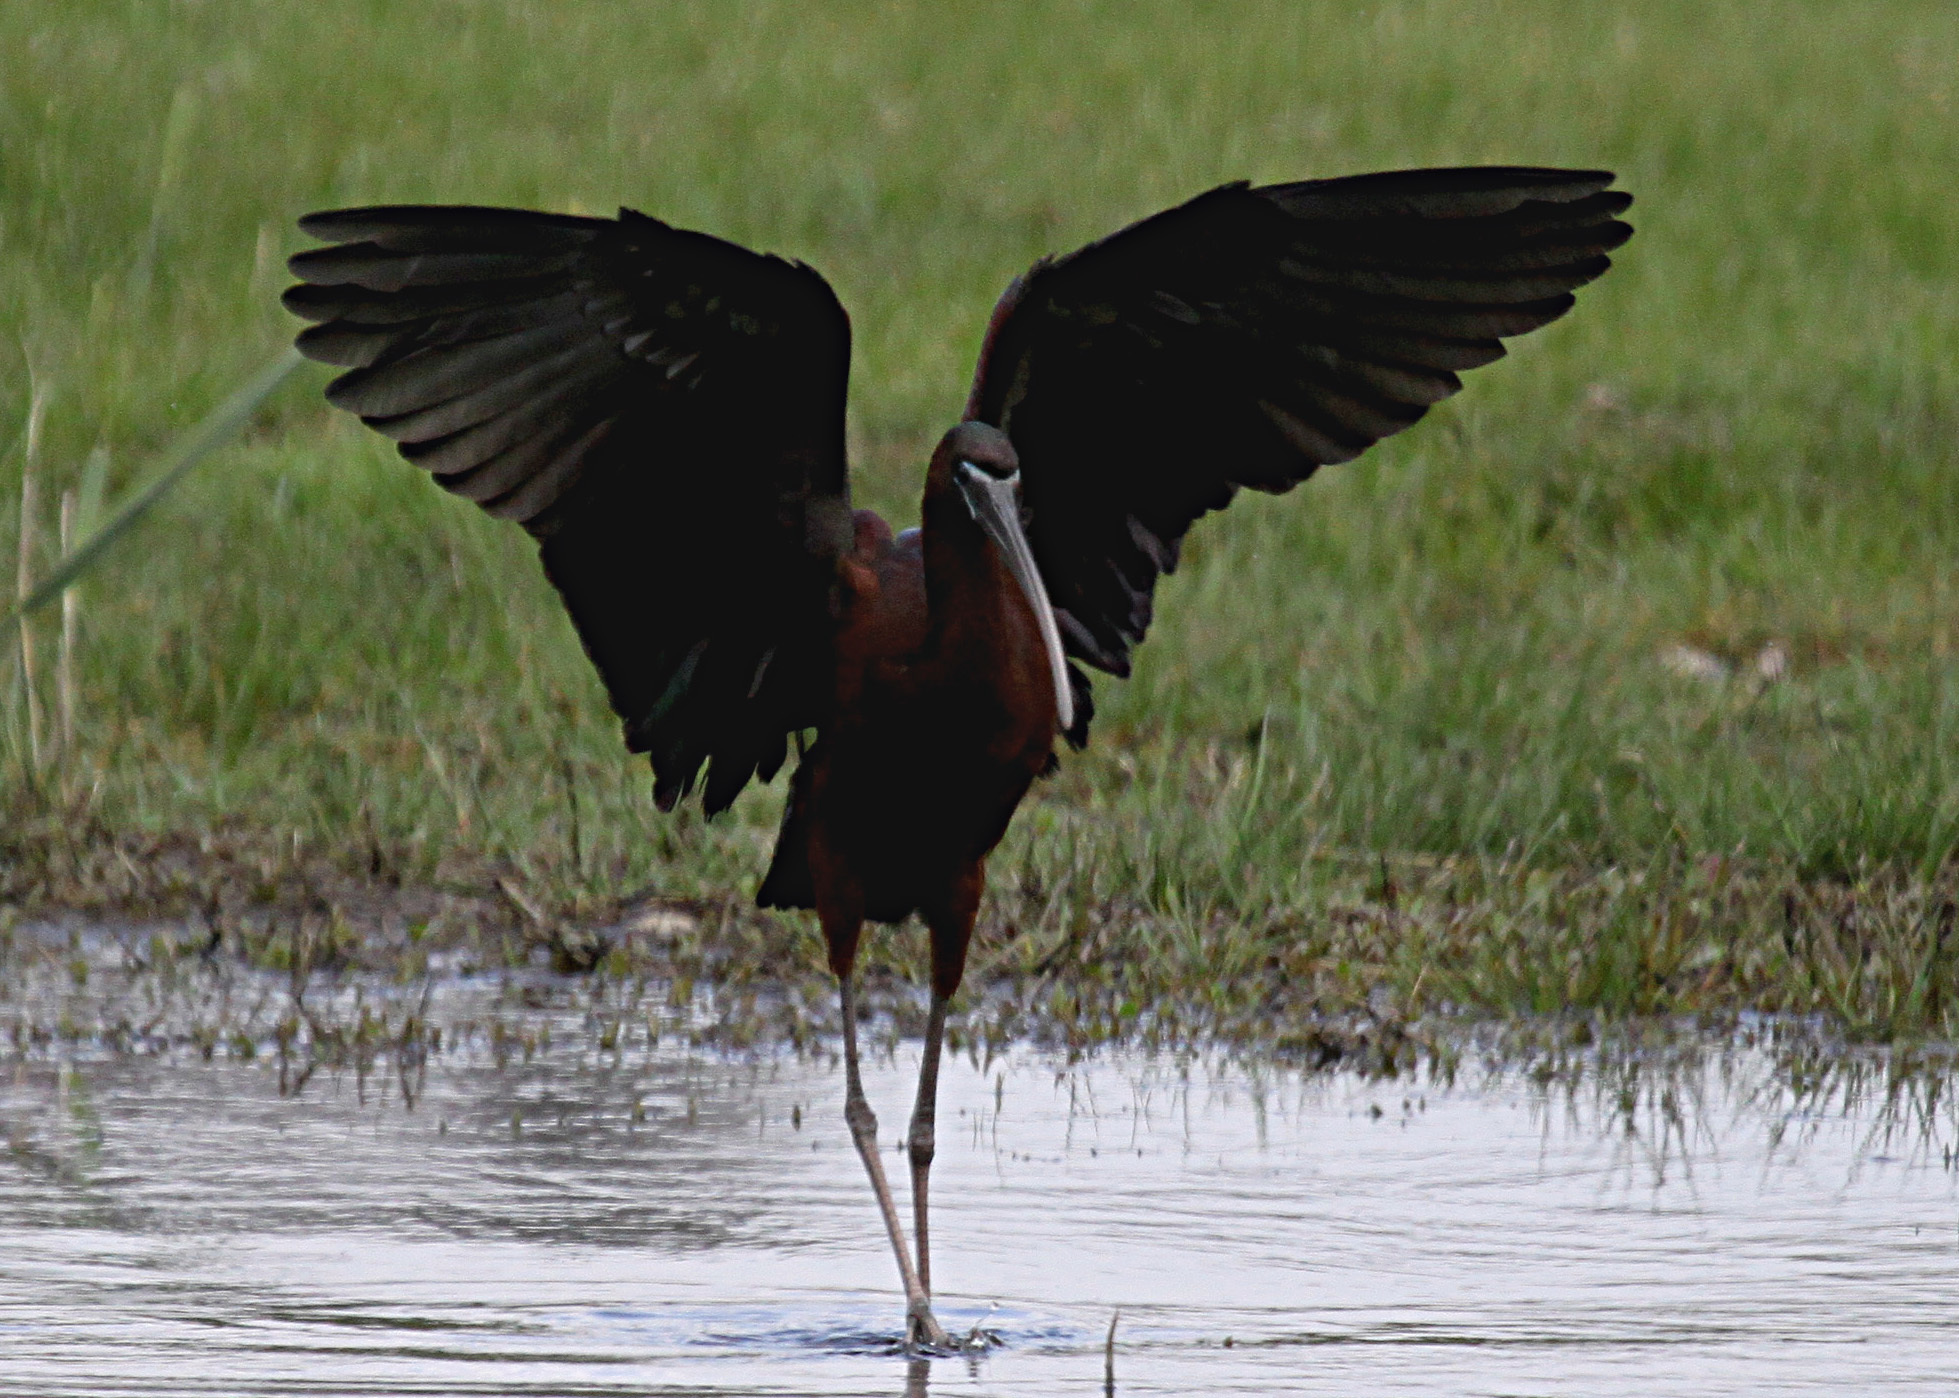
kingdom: Animalia
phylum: Chordata
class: Aves
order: Pelecaniformes
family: Threskiornithidae
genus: Plegadis
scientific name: Plegadis falcinellus
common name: Glossy ibis
